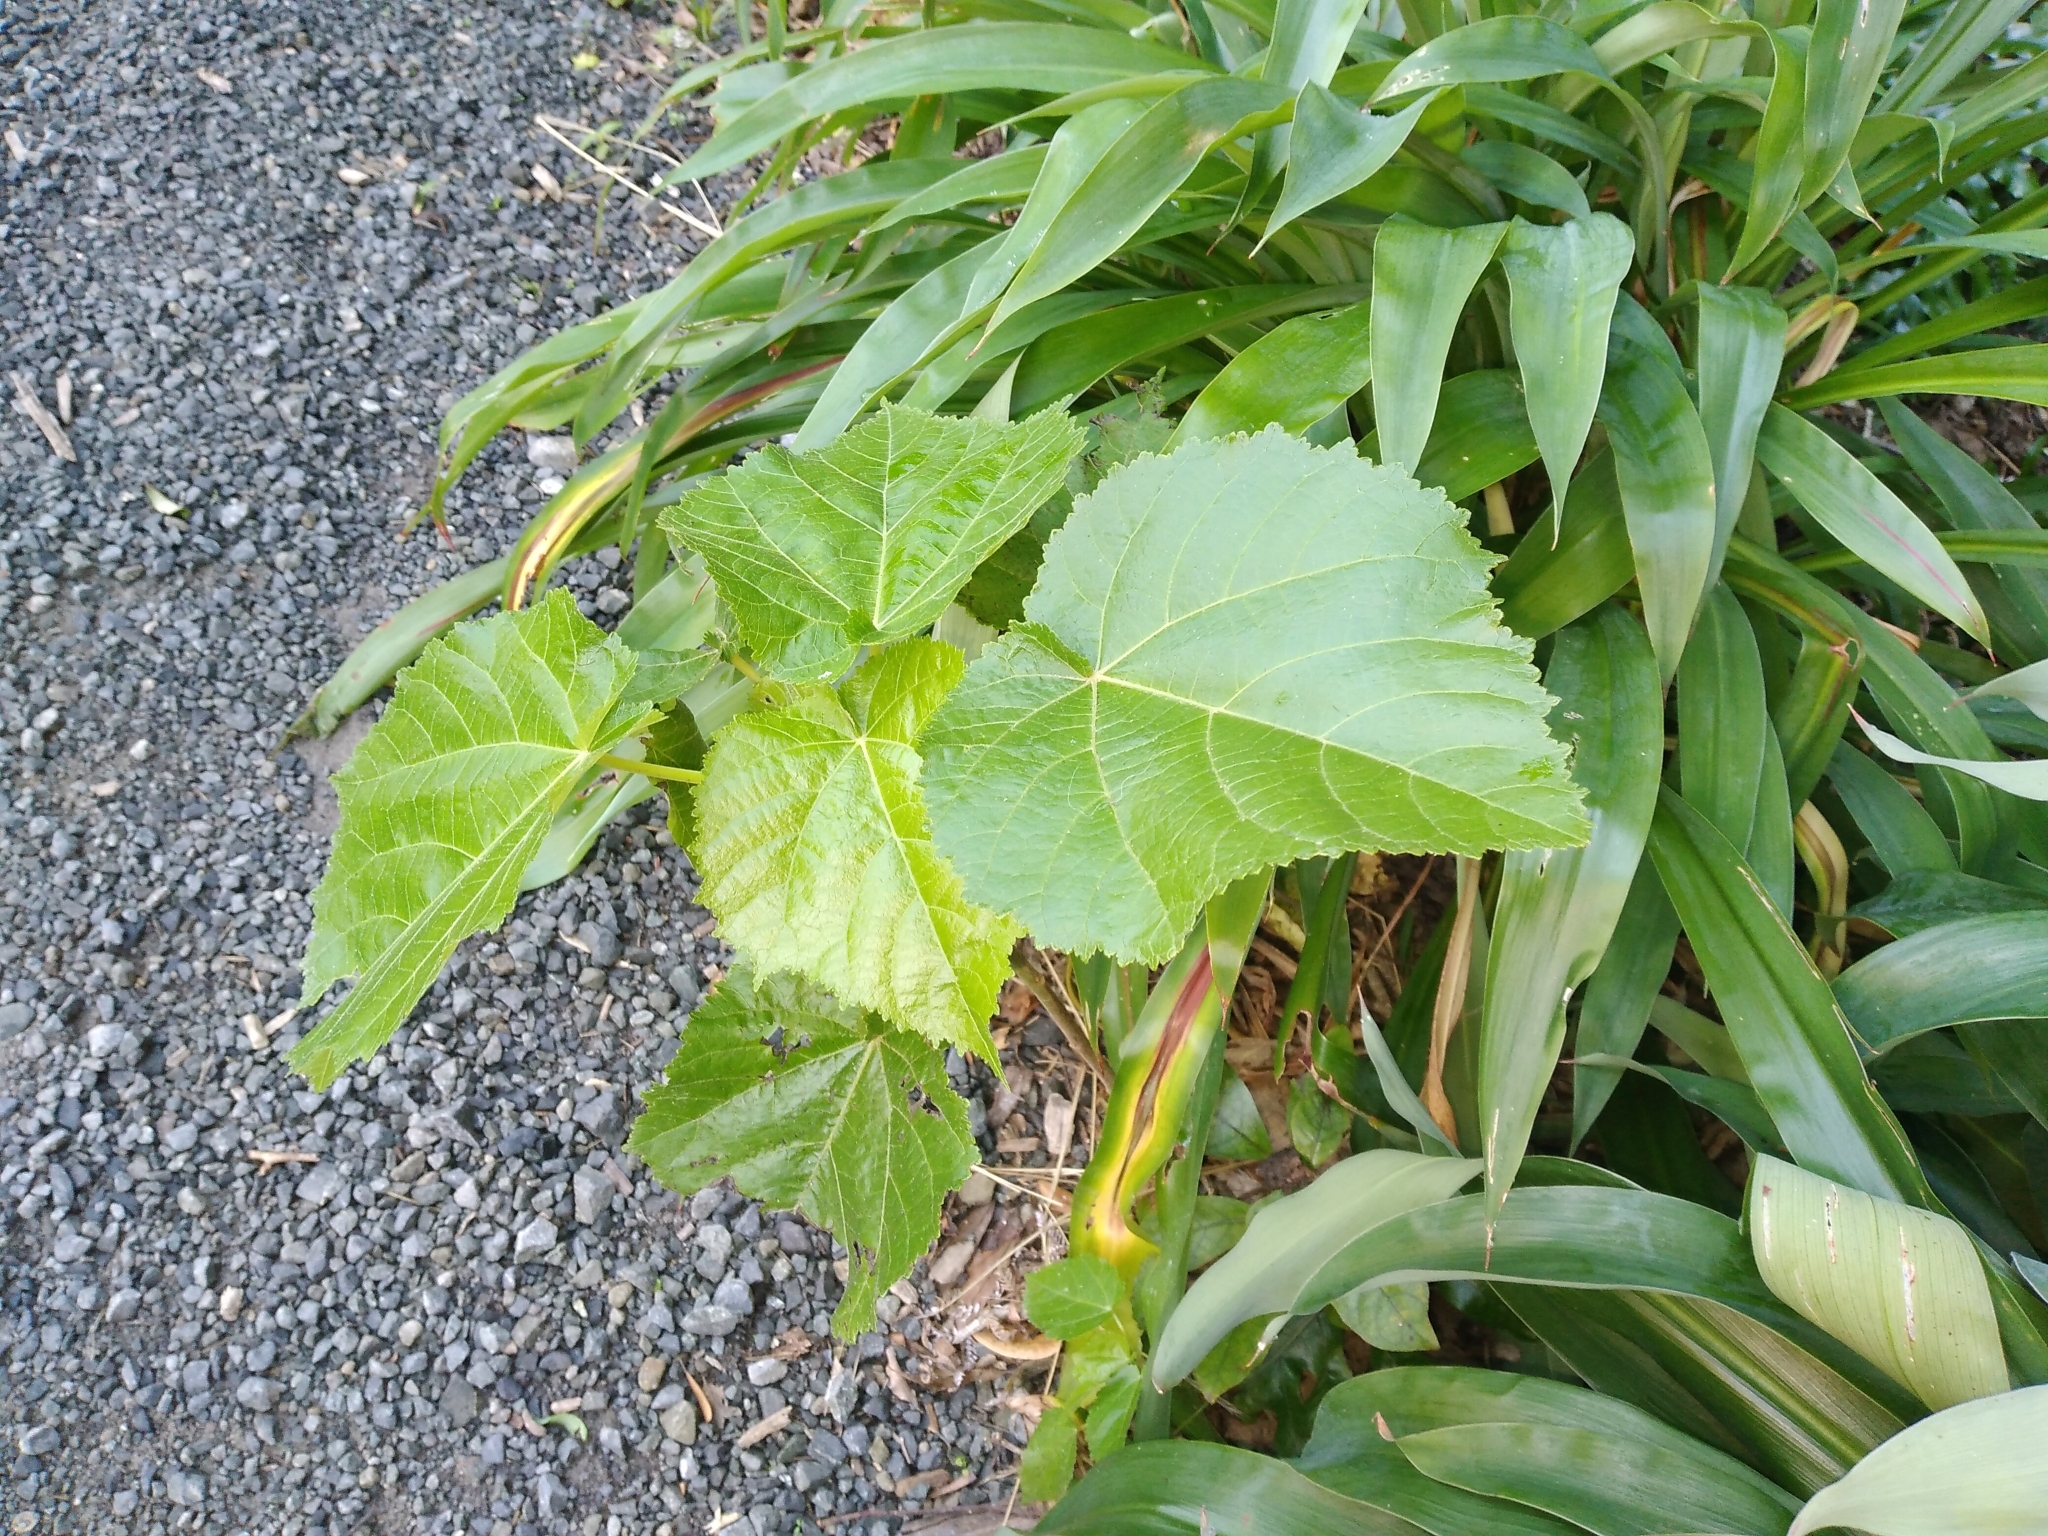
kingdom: Plantae
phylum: Tracheophyta
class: Magnoliopsida
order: Malvales
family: Malvaceae
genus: Entelea
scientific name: Entelea arborescens
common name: New zealand-mulberry
